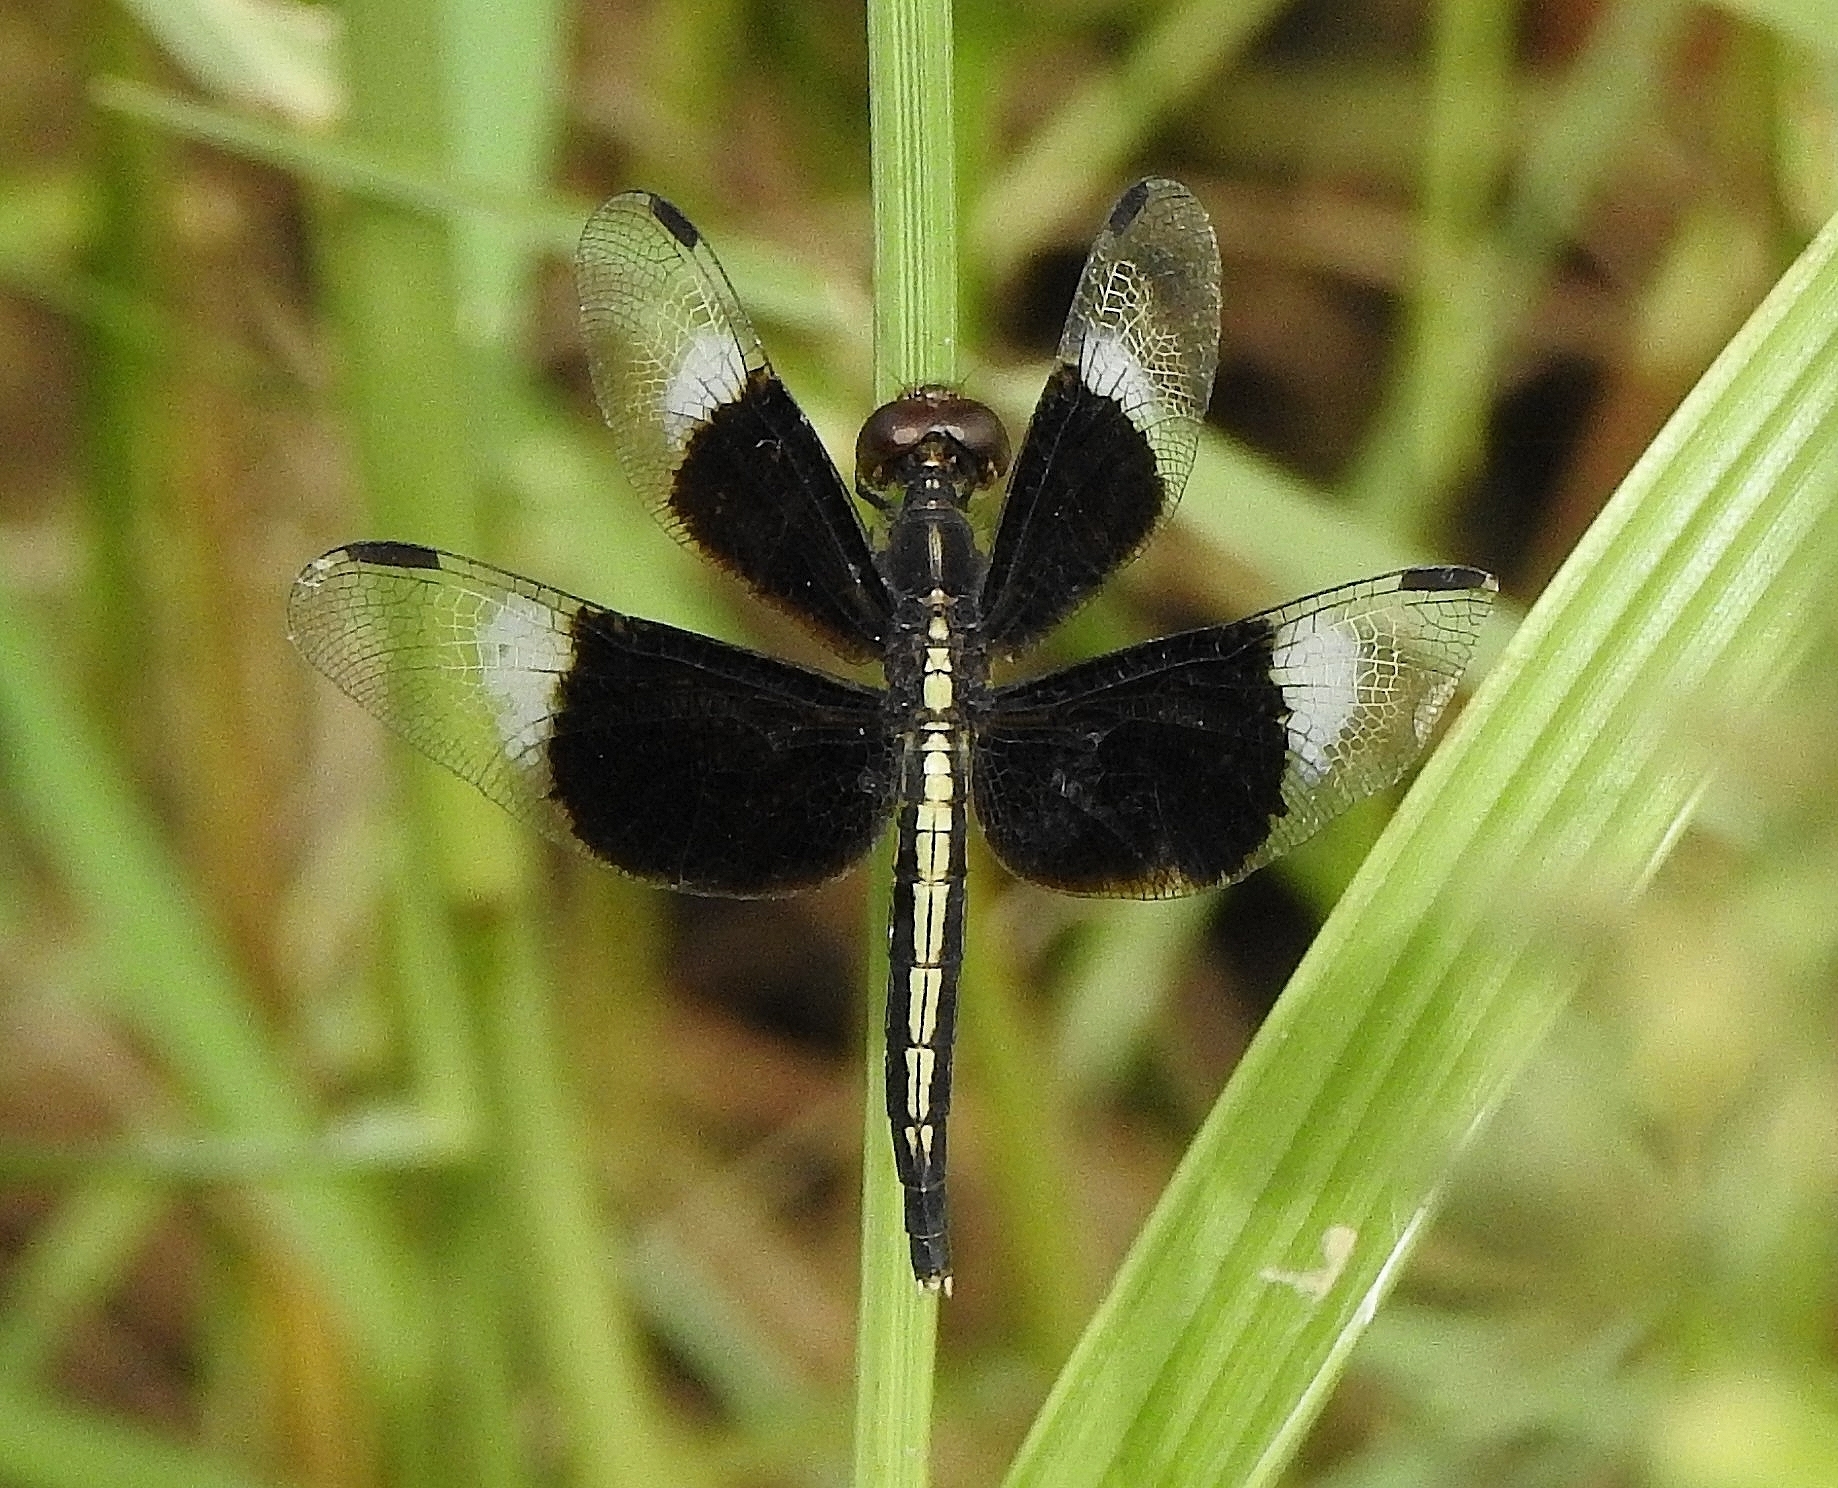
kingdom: Animalia
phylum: Arthropoda
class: Insecta
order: Odonata
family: Libellulidae
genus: Neurothemis
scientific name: Neurothemis tullia
